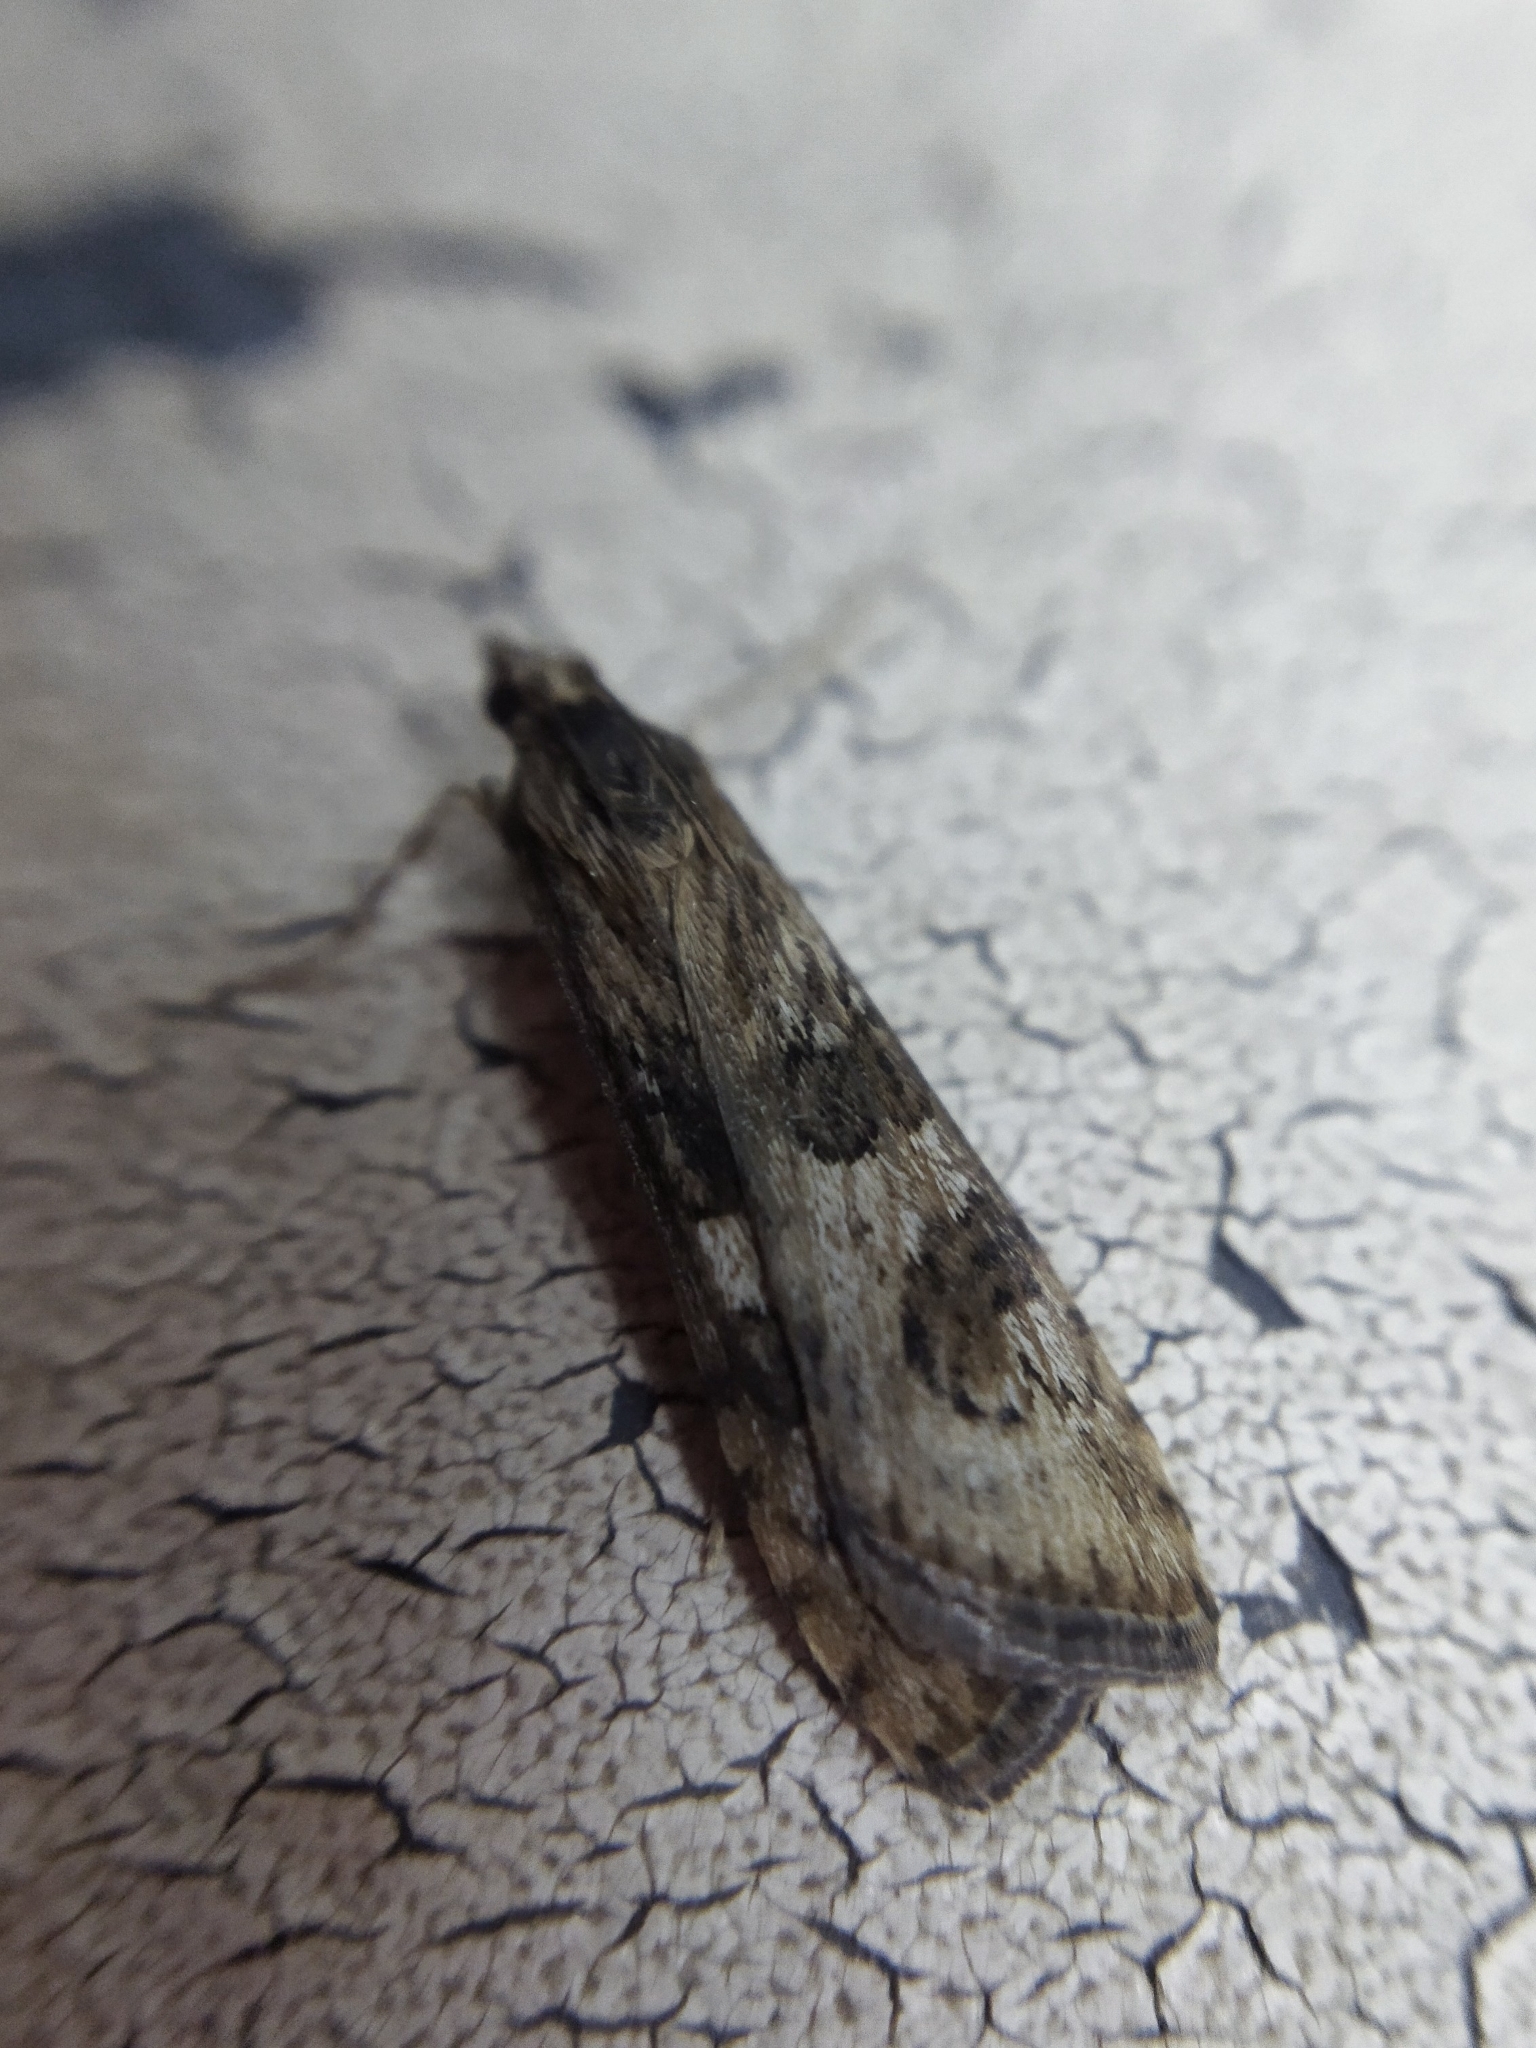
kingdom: Animalia
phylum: Arthropoda
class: Insecta
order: Lepidoptera
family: Crambidae
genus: Nomophila
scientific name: Nomophila noctuella
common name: Rush veneer
